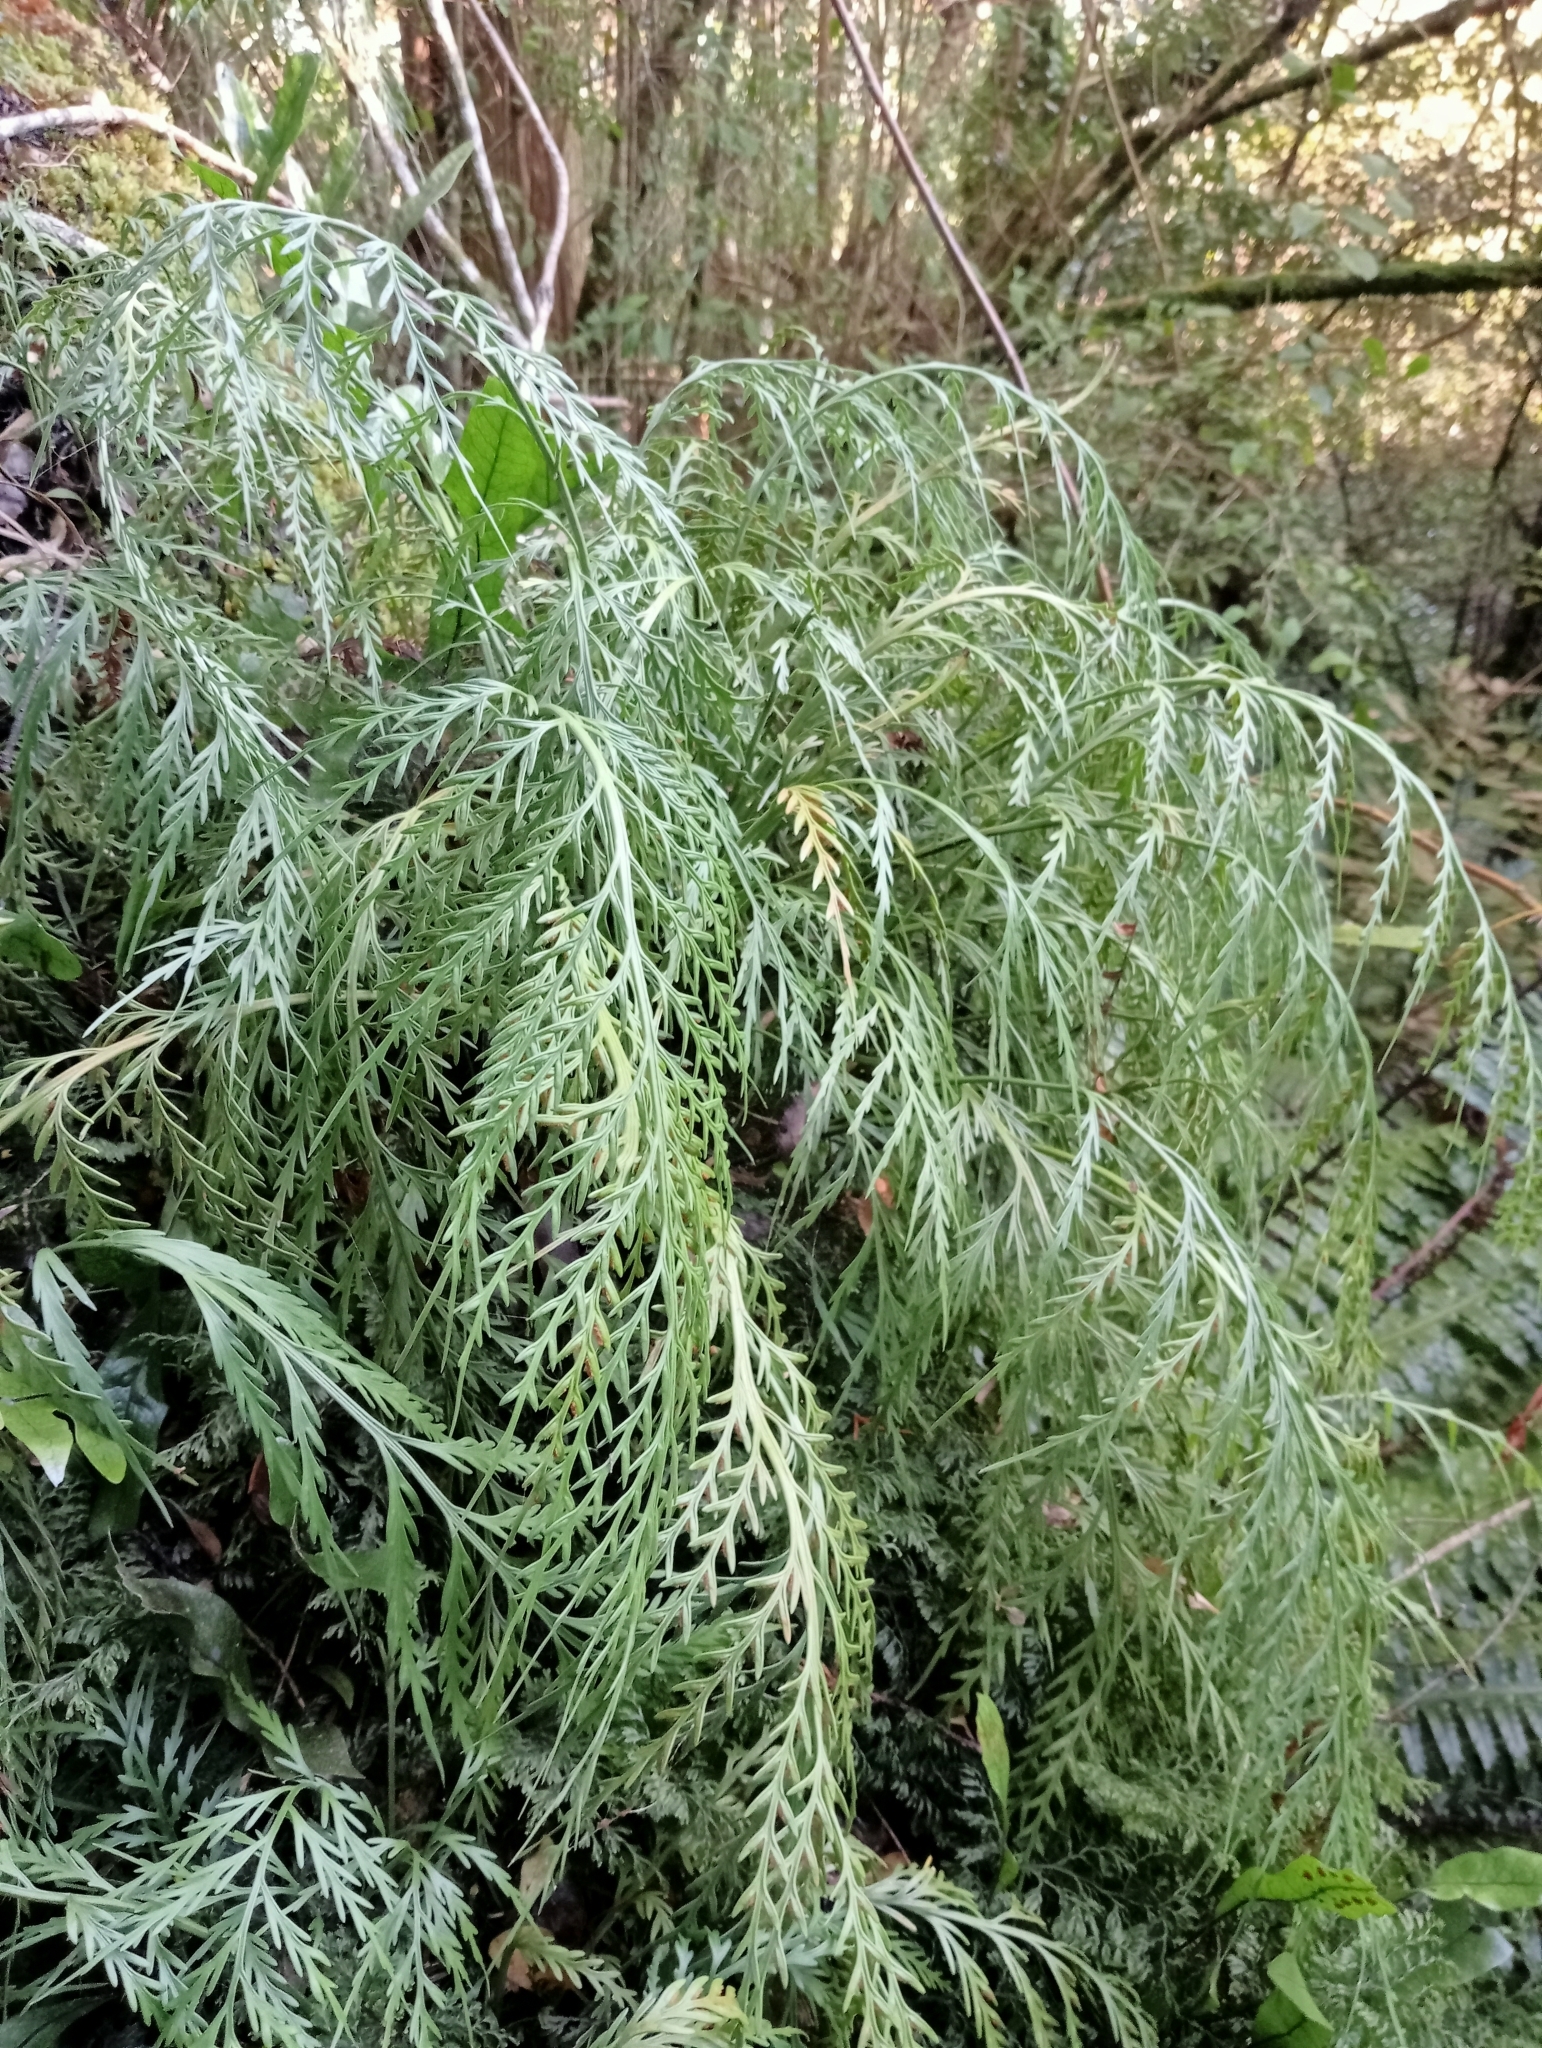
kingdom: Plantae
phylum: Tracheophyta
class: Polypodiopsida
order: Polypodiales
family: Aspleniaceae
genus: Asplenium
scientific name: Asplenium flaccidum
